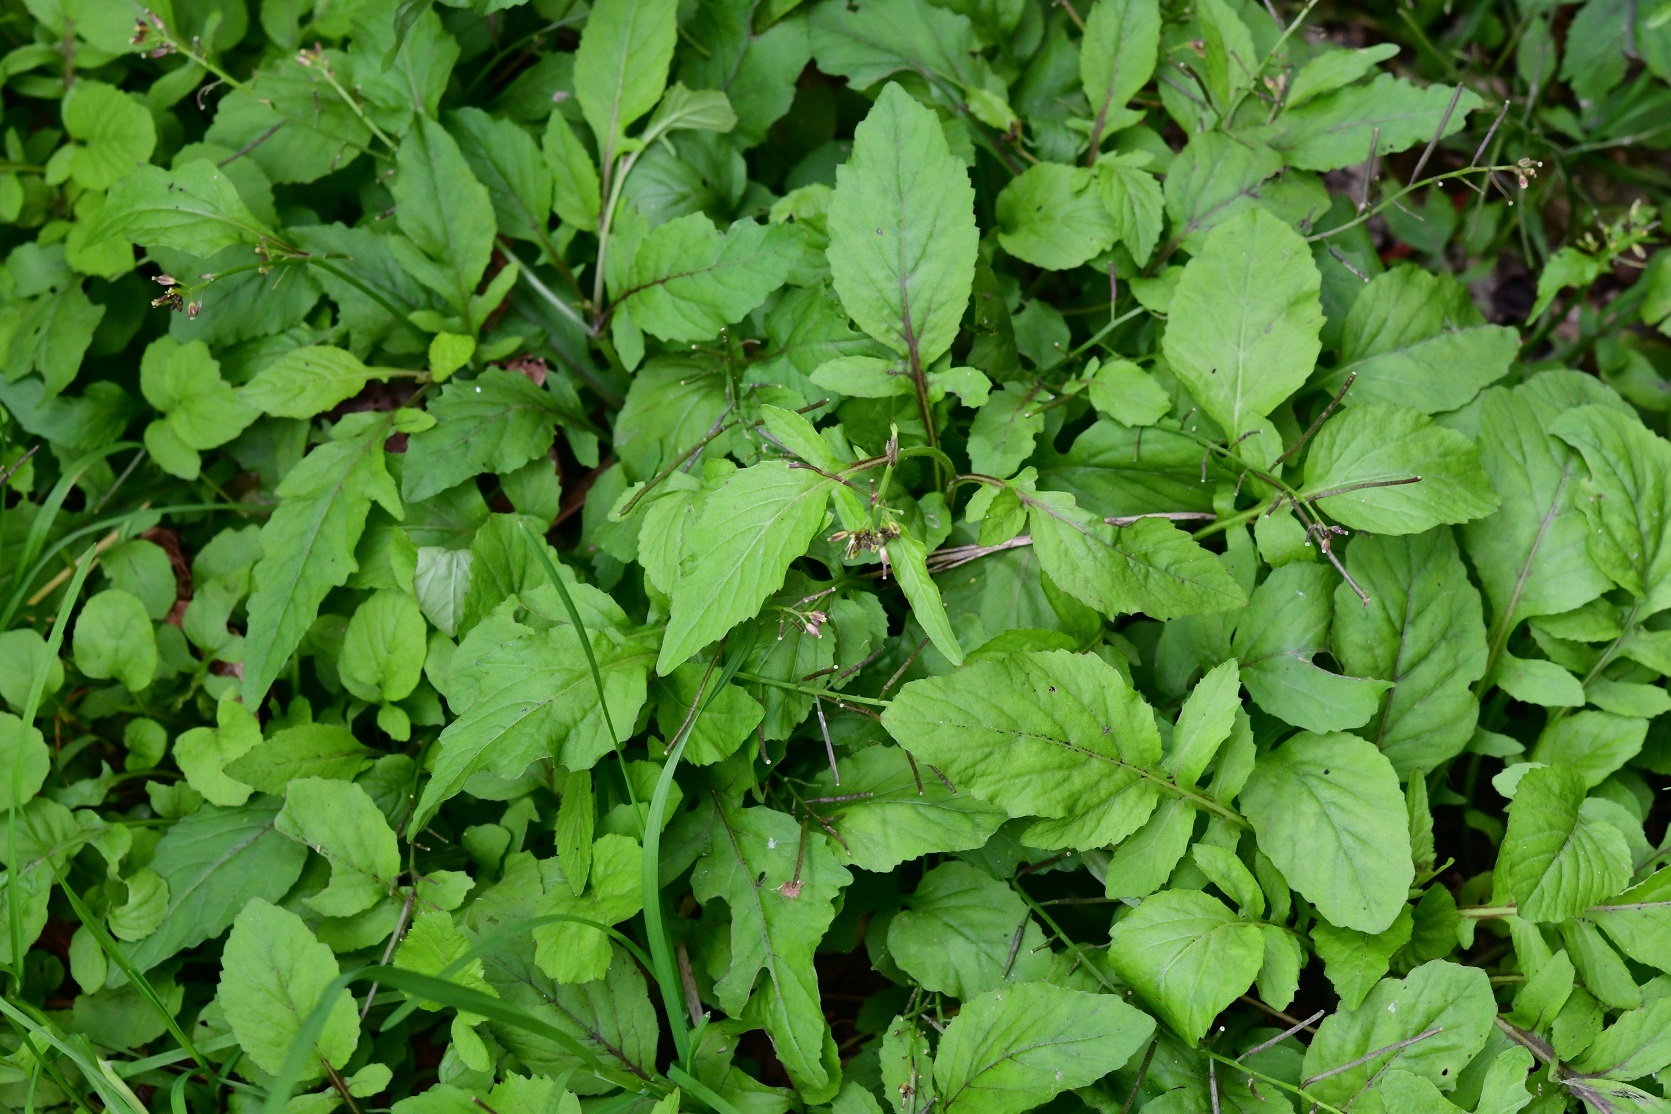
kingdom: Plantae
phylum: Tracheophyta
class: Magnoliopsida
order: Brassicales
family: Brassicaceae
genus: Rorippa
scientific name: Rorippa dubia
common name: Variableleaf yellowcress
